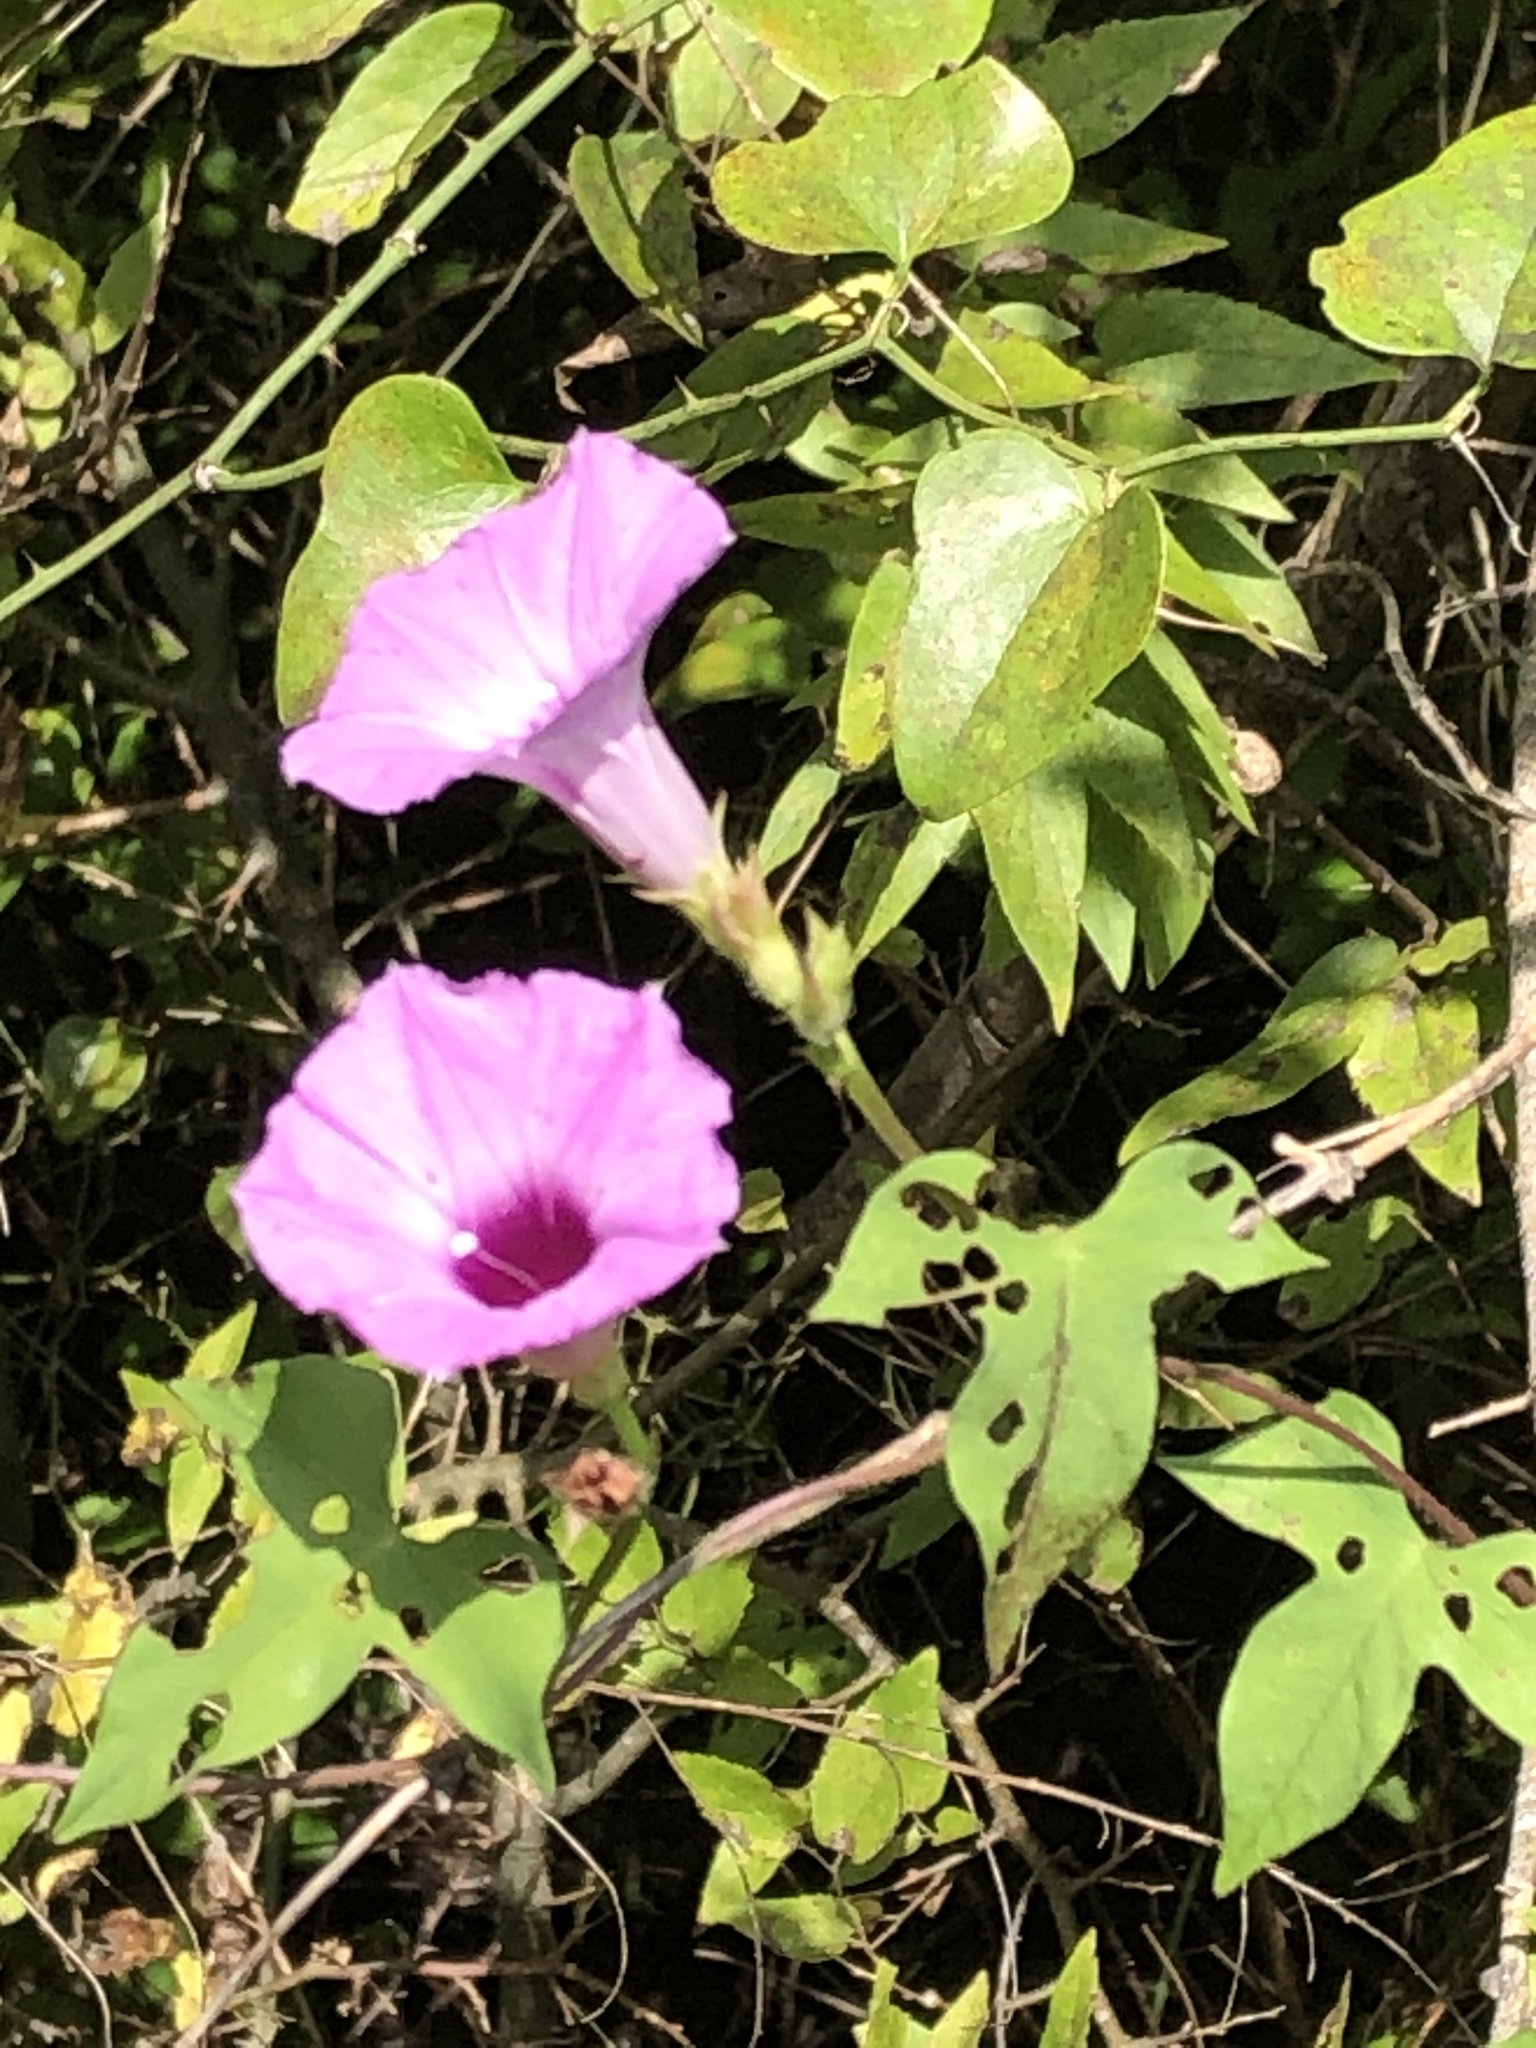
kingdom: Plantae
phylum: Tracheophyta
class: Magnoliopsida
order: Solanales
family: Convolvulaceae
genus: Ipomoea
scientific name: Ipomoea cordatotriloba
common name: Cotton morning glory
